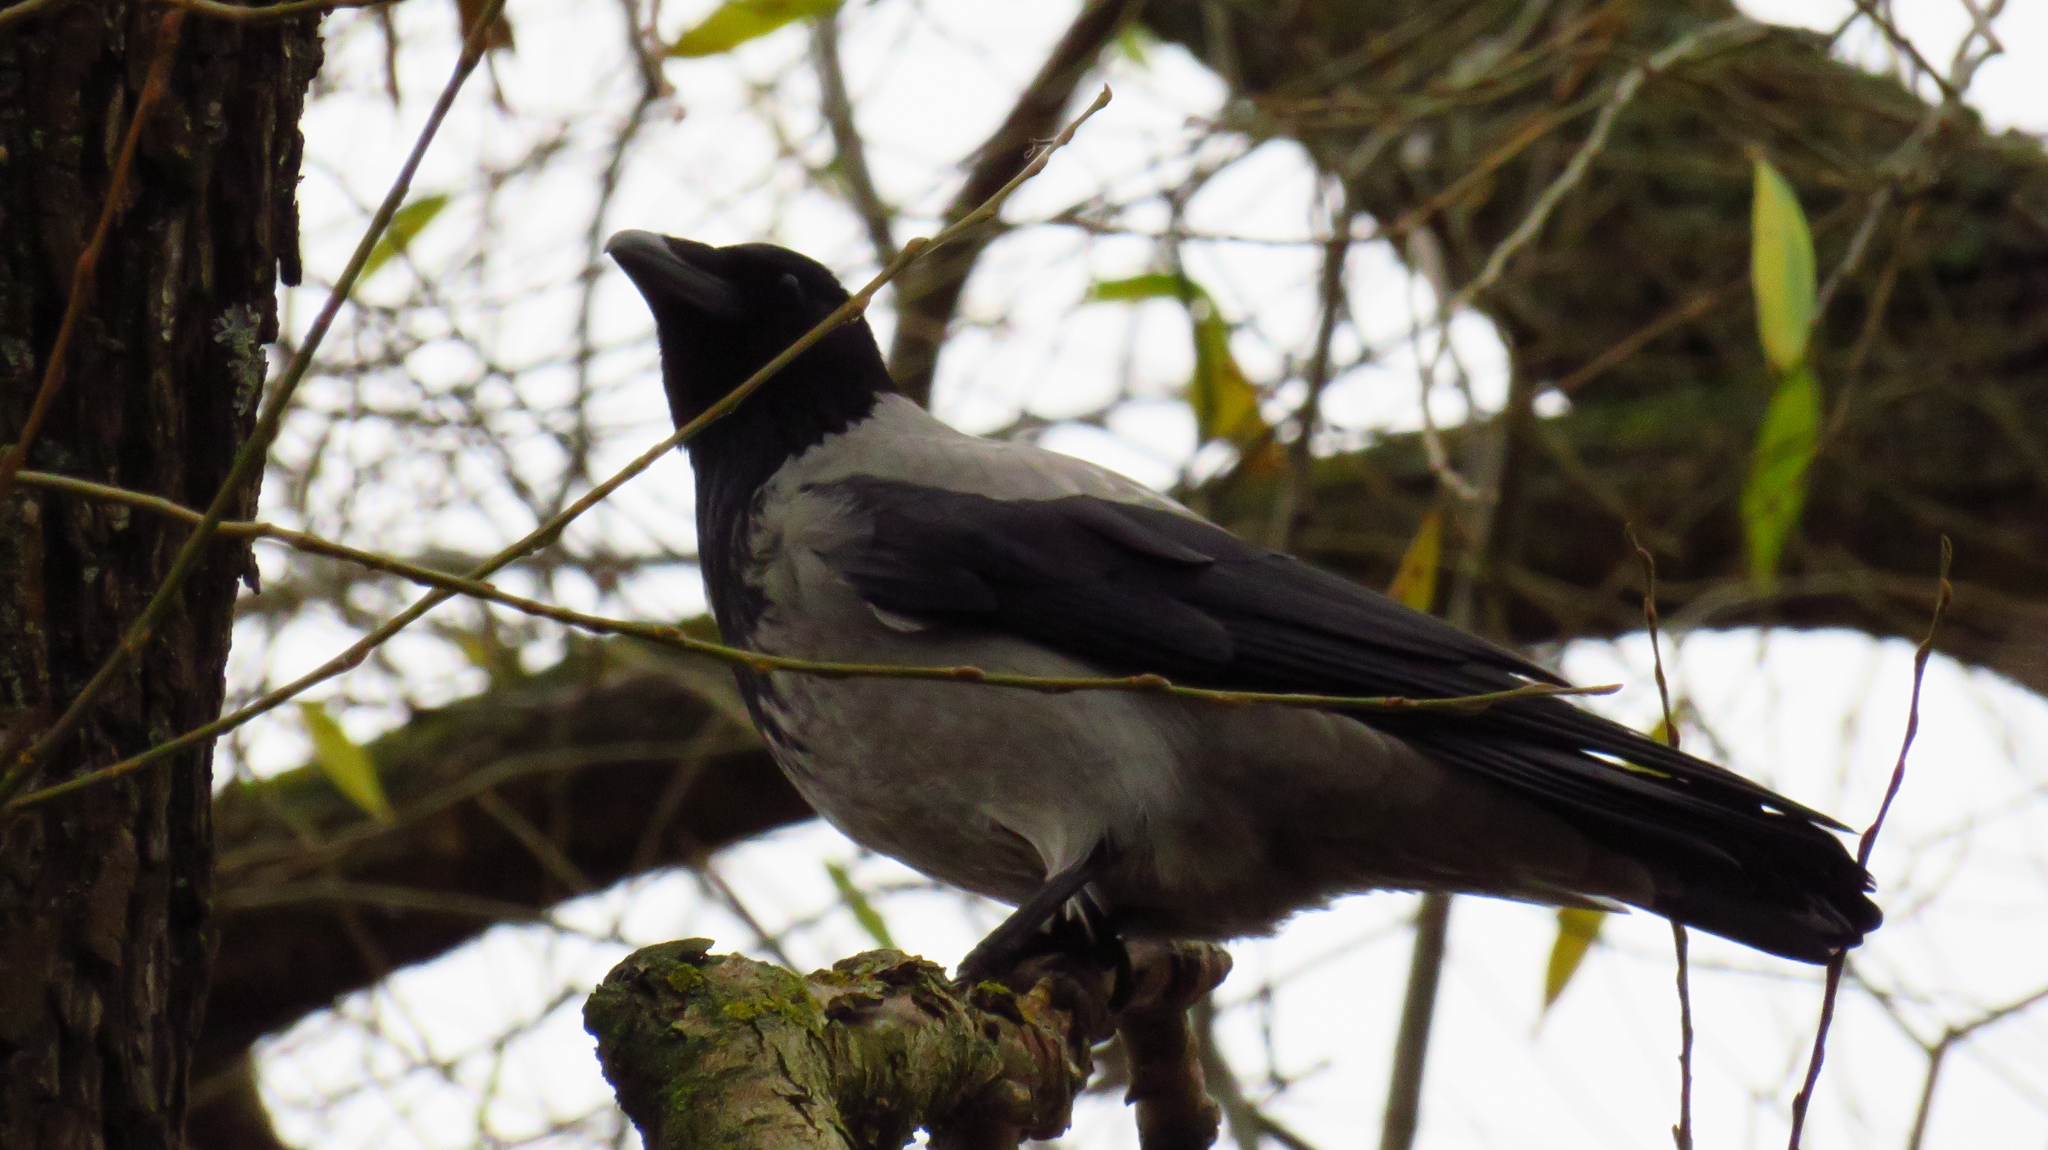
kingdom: Animalia
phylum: Chordata
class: Aves
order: Passeriformes
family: Corvidae
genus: Corvus
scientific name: Corvus cornix
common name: Hooded crow
